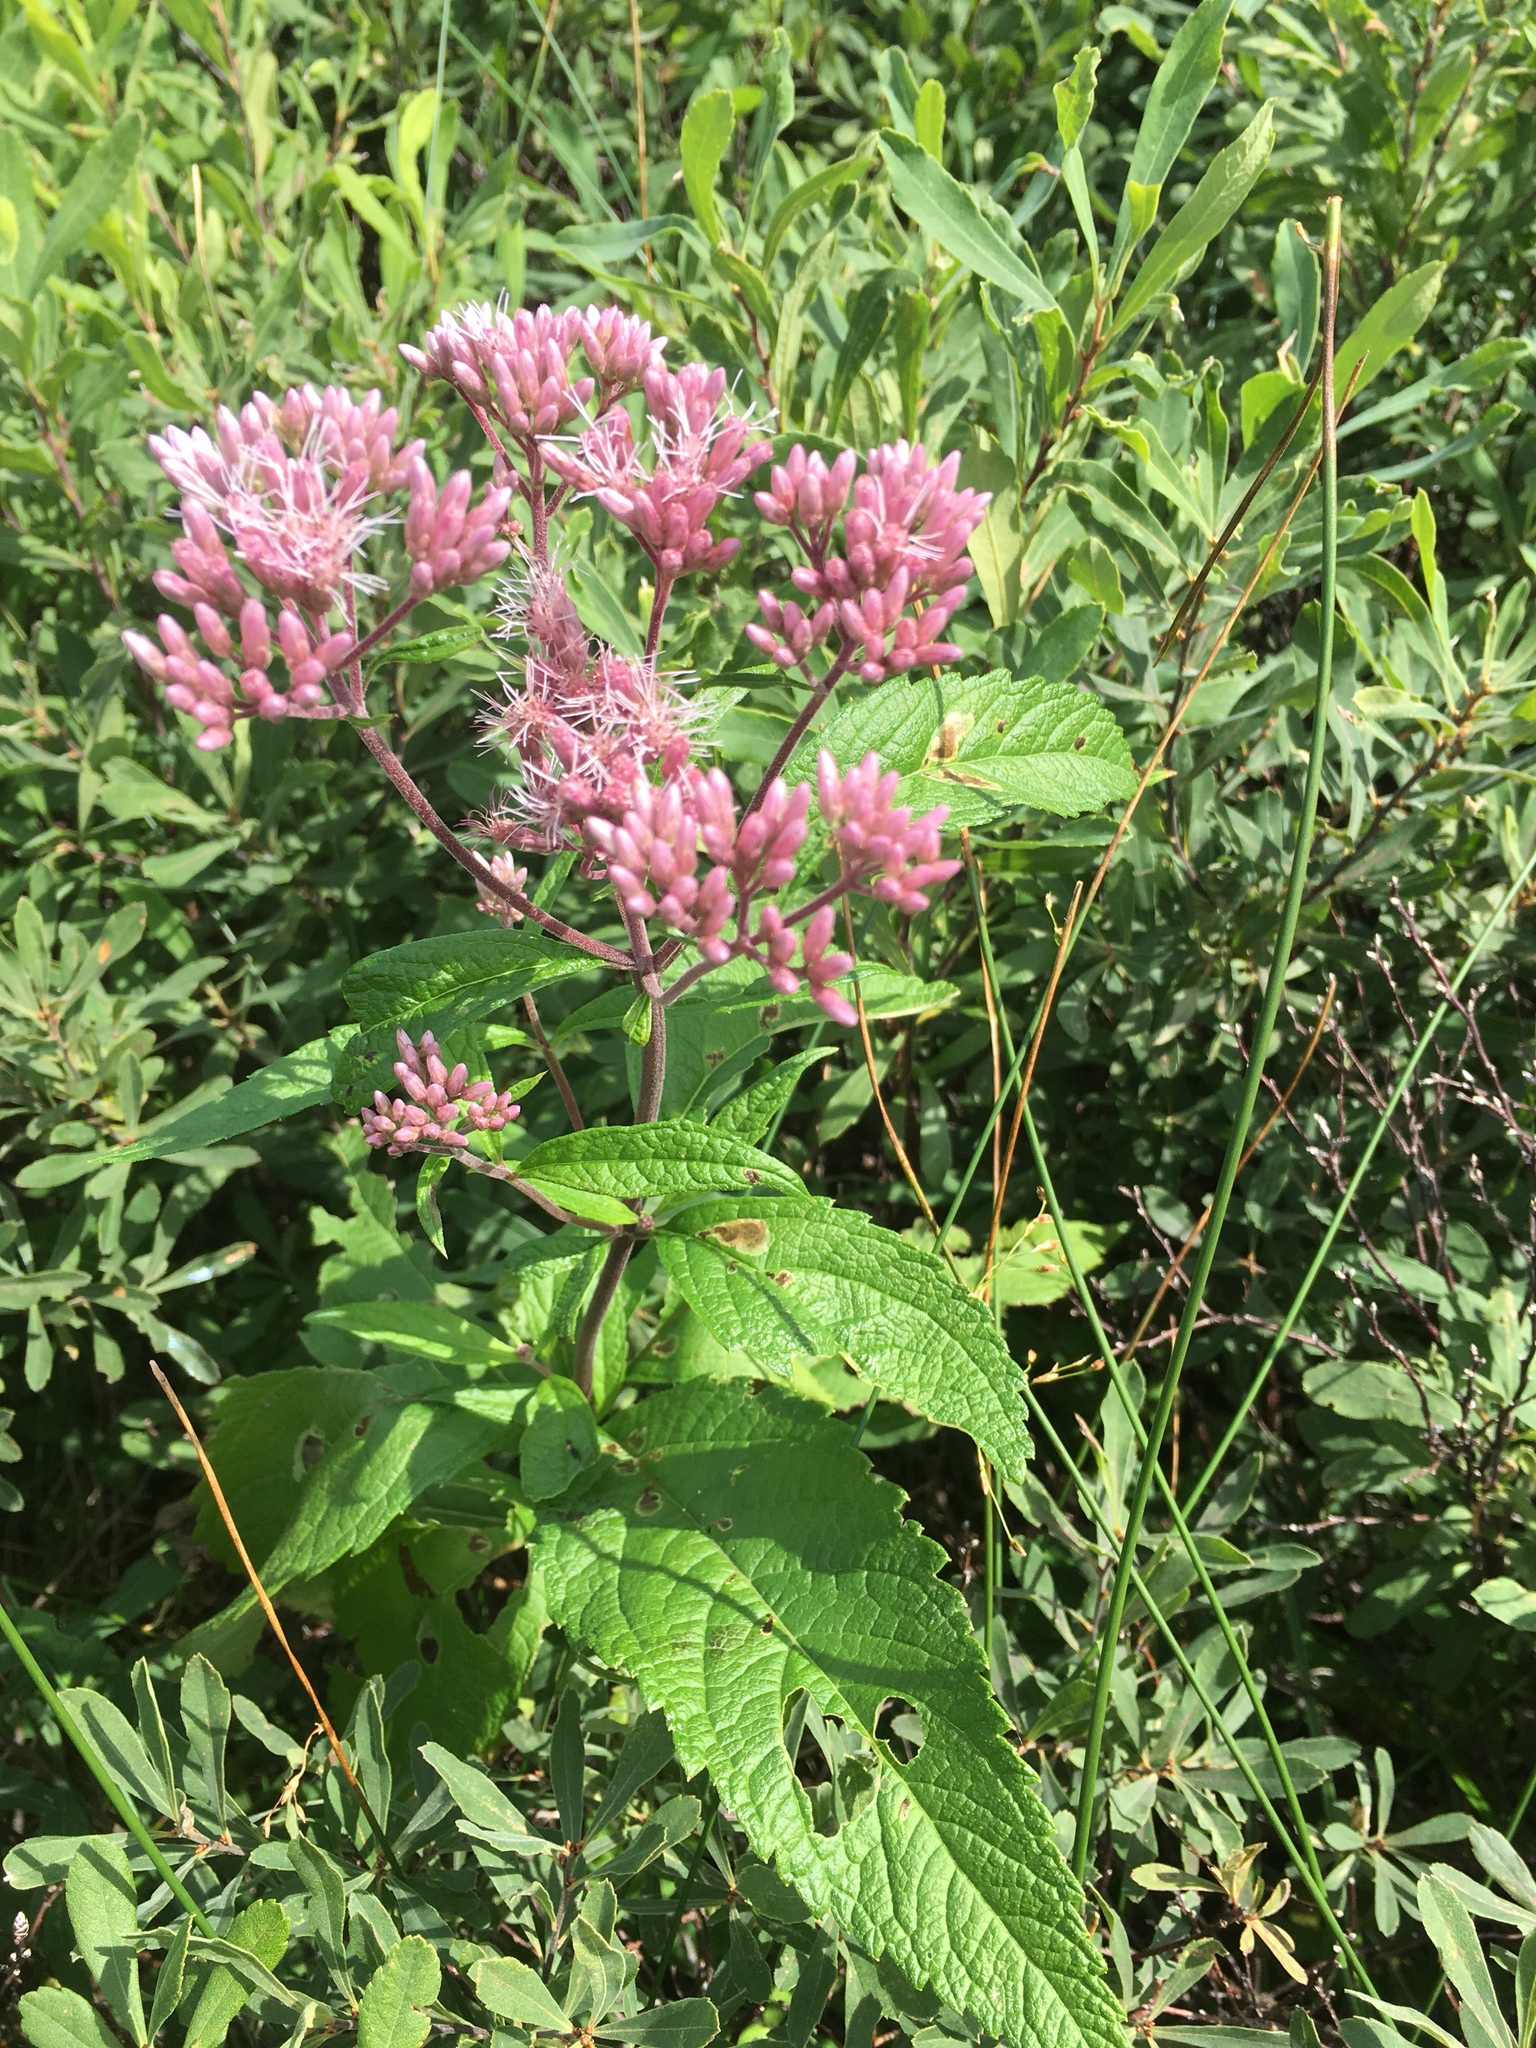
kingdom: Plantae
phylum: Tracheophyta
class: Magnoliopsida
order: Asterales
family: Asteraceae
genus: Eutrochium
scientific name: Eutrochium maculatum
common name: Spotted joe pye weed
